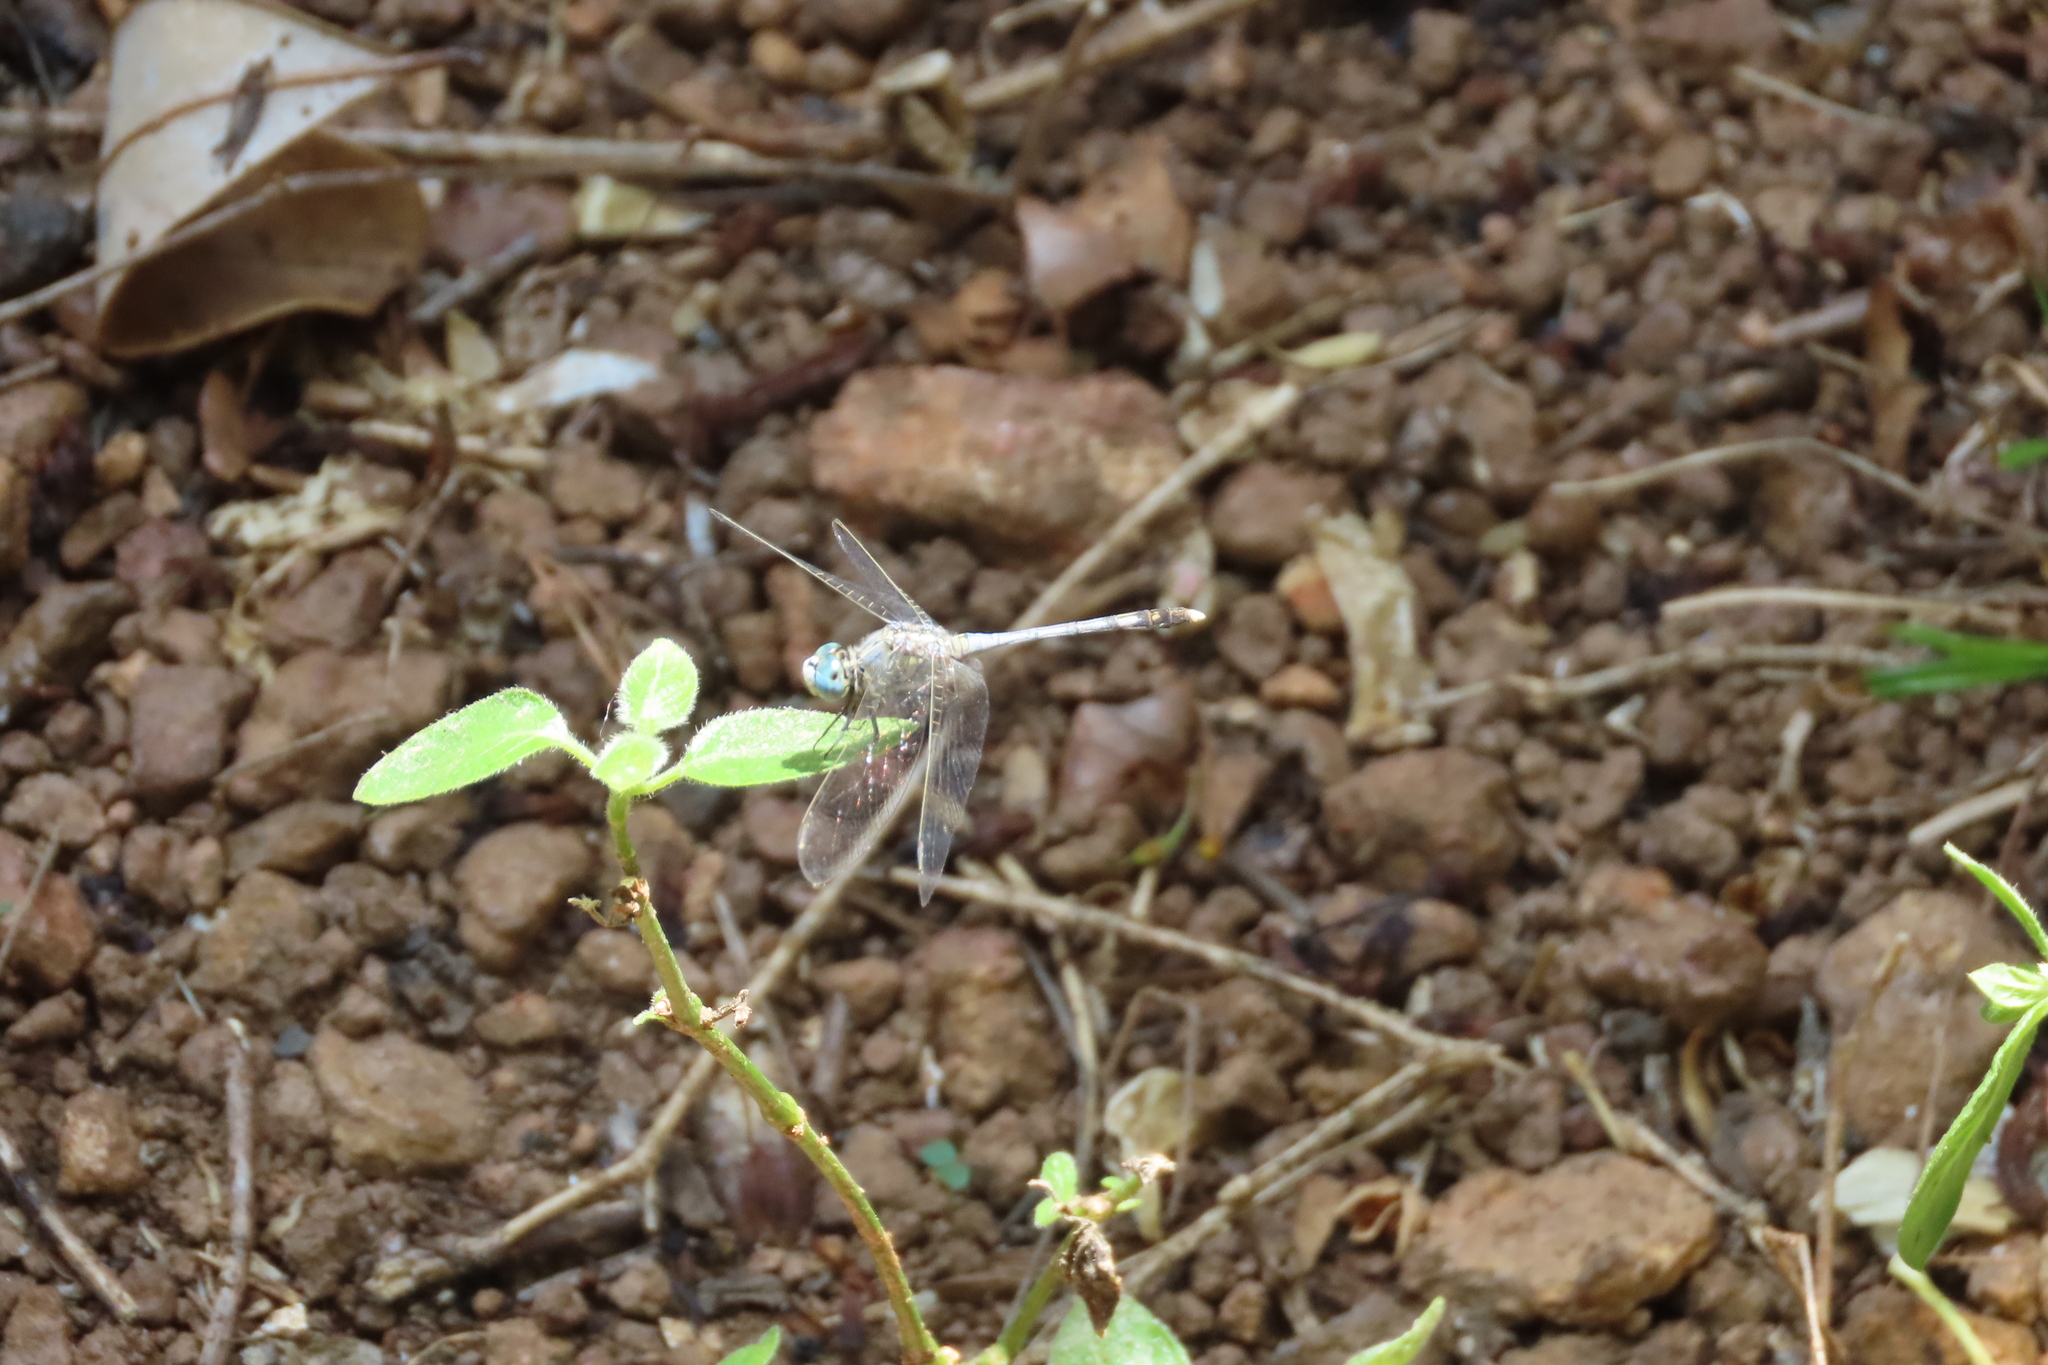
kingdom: Animalia
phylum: Arthropoda
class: Insecta
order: Odonata
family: Libellulidae
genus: Diplacodes
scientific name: Diplacodes trivialis
